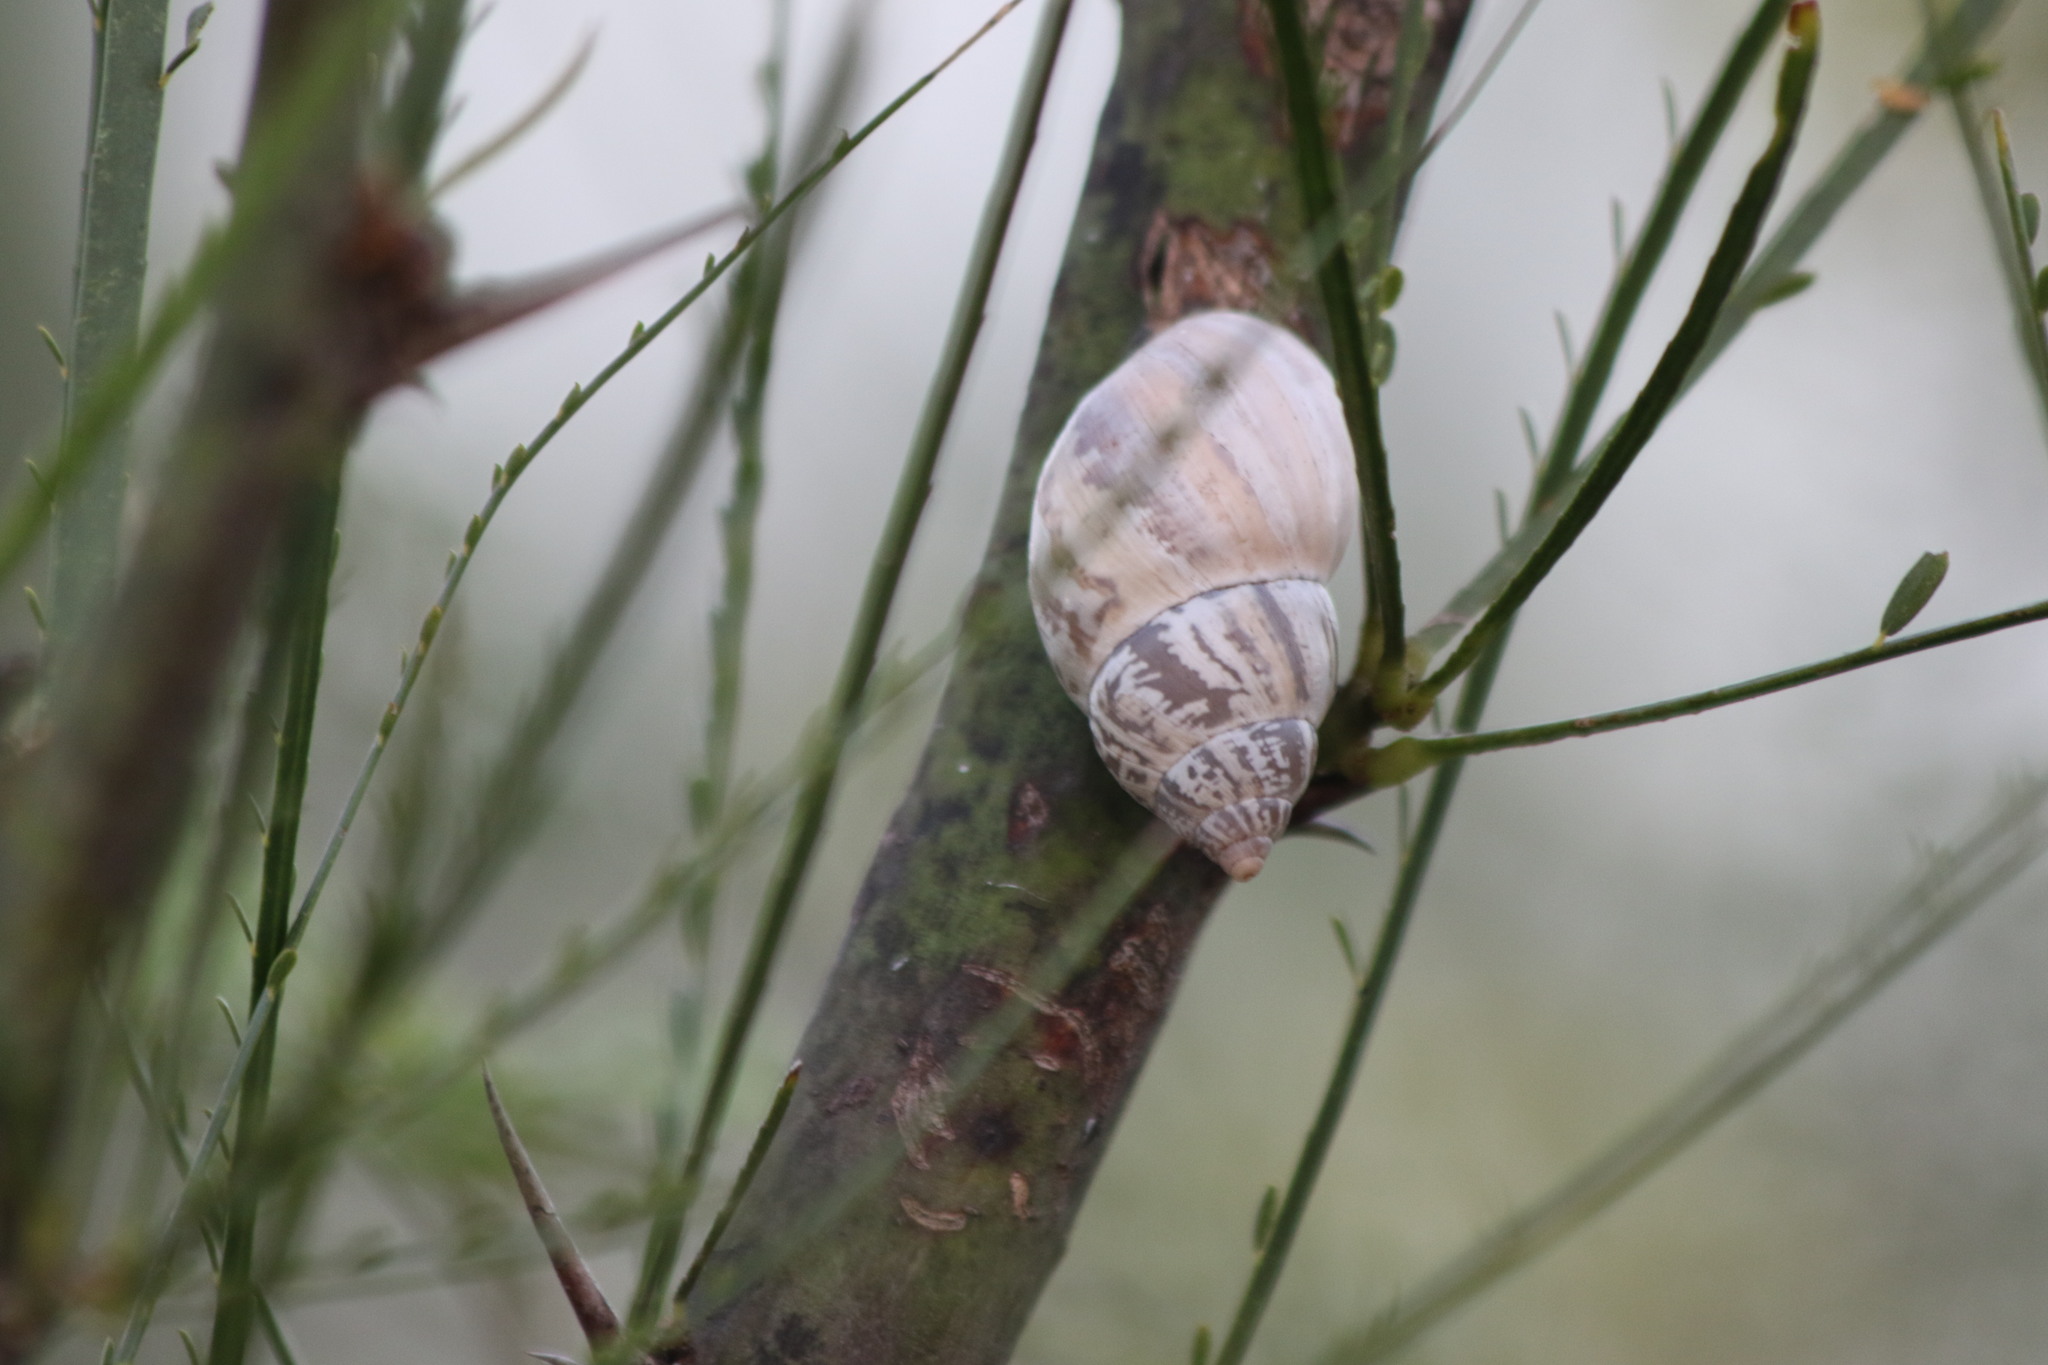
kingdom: Animalia
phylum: Mollusca
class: Gastropoda
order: Stylommatophora
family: Bulimulidae
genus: Rabdotus
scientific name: Rabdotus alternatus
